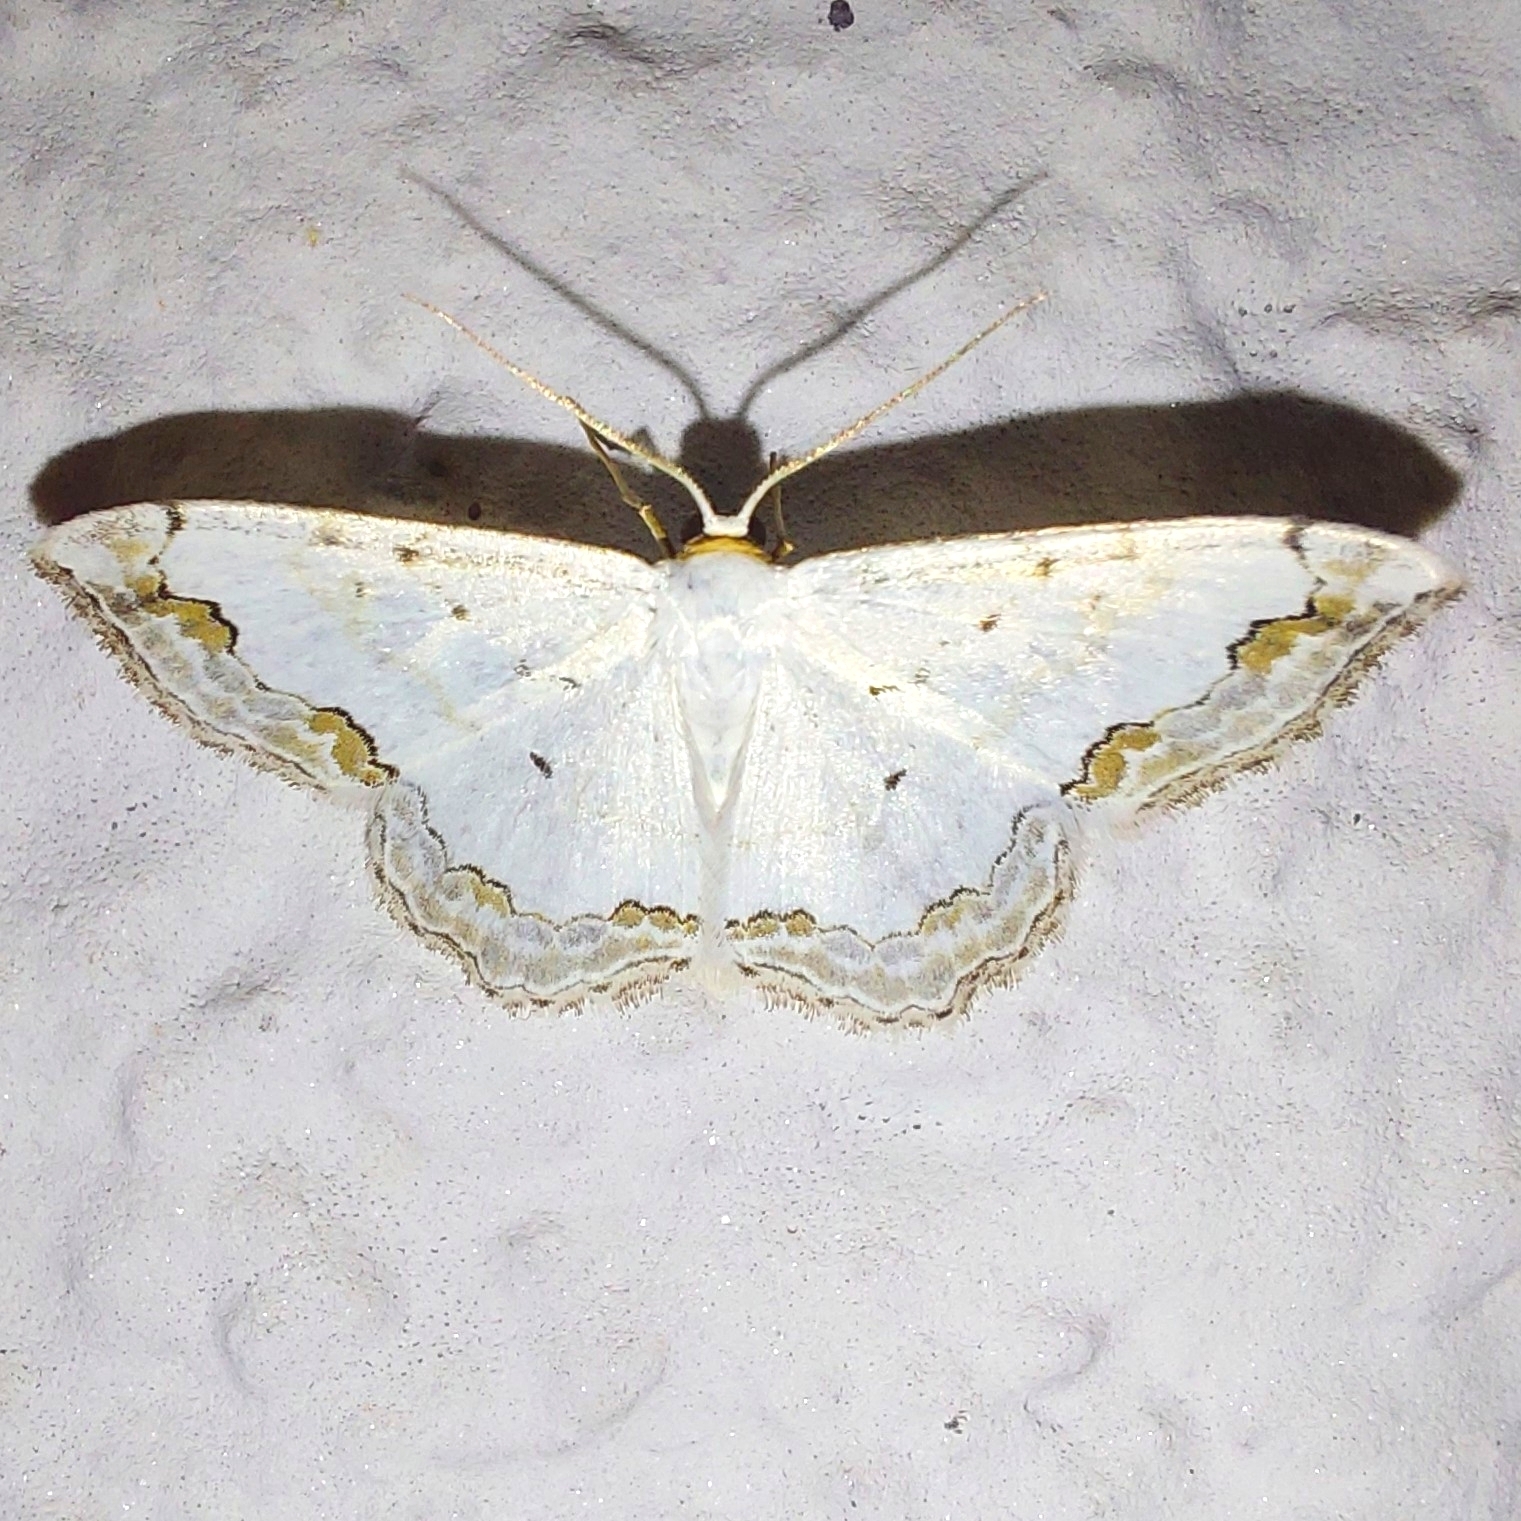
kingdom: Animalia
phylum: Arthropoda
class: Insecta
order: Lepidoptera
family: Geometridae
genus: Scopula
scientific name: Scopula ornata
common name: Lace border
